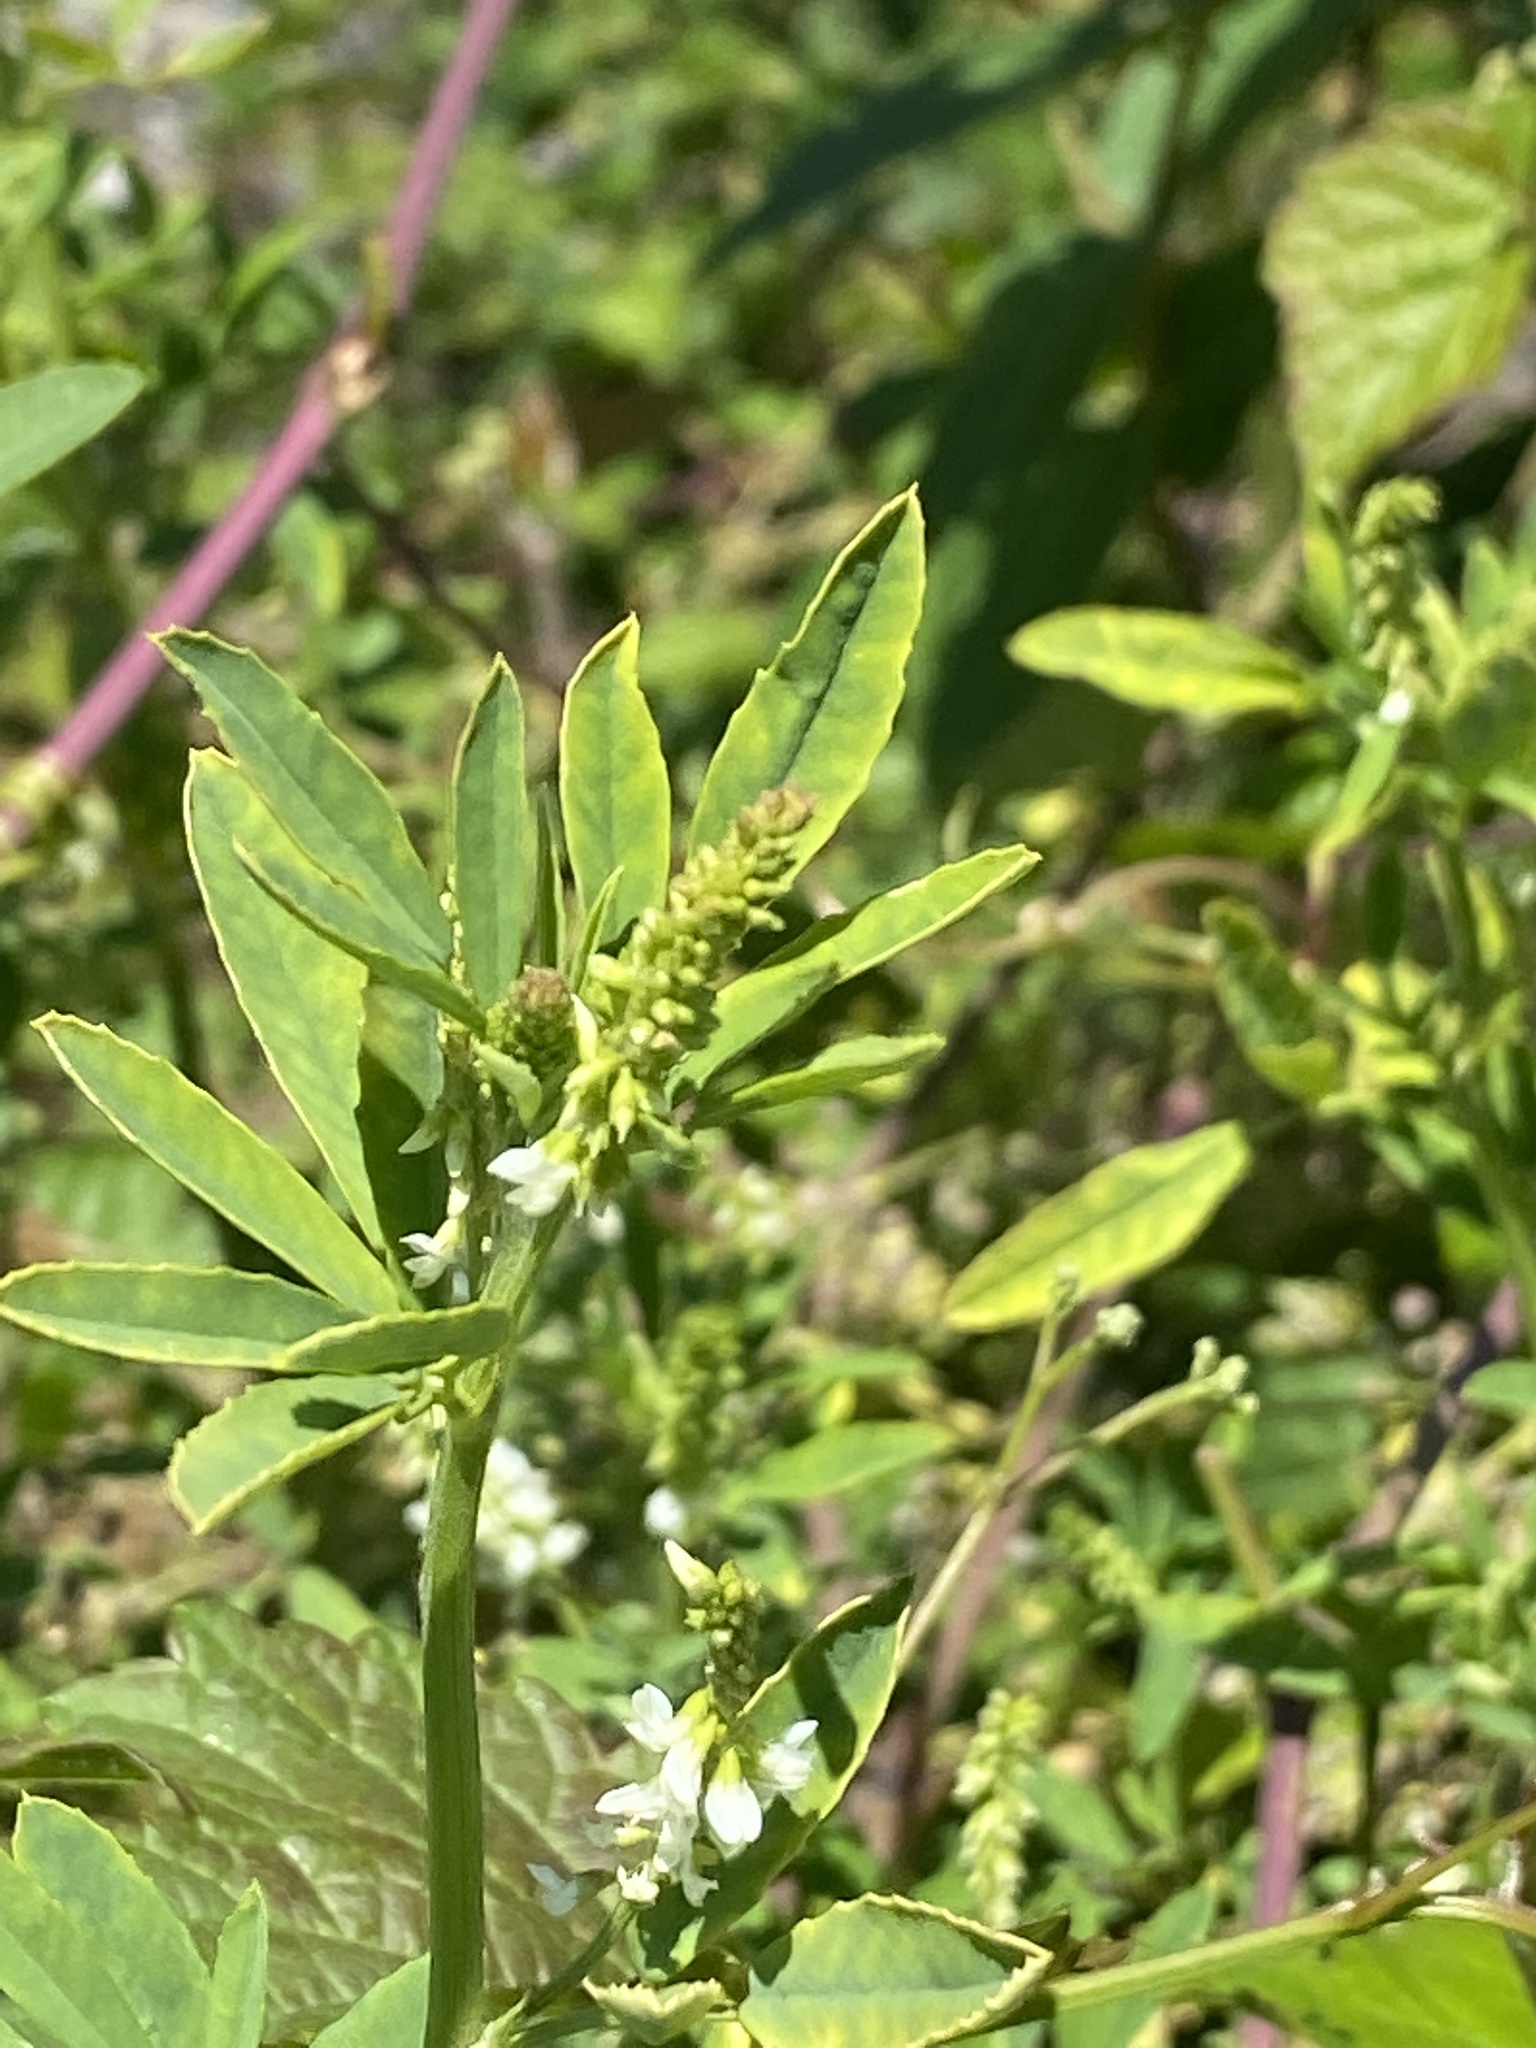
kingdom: Plantae
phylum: Tracheophyta
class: Magnoliopsida
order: Fabales
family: Fabaceae
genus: Melilotus
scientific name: Melilotus albus
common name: White melilot
